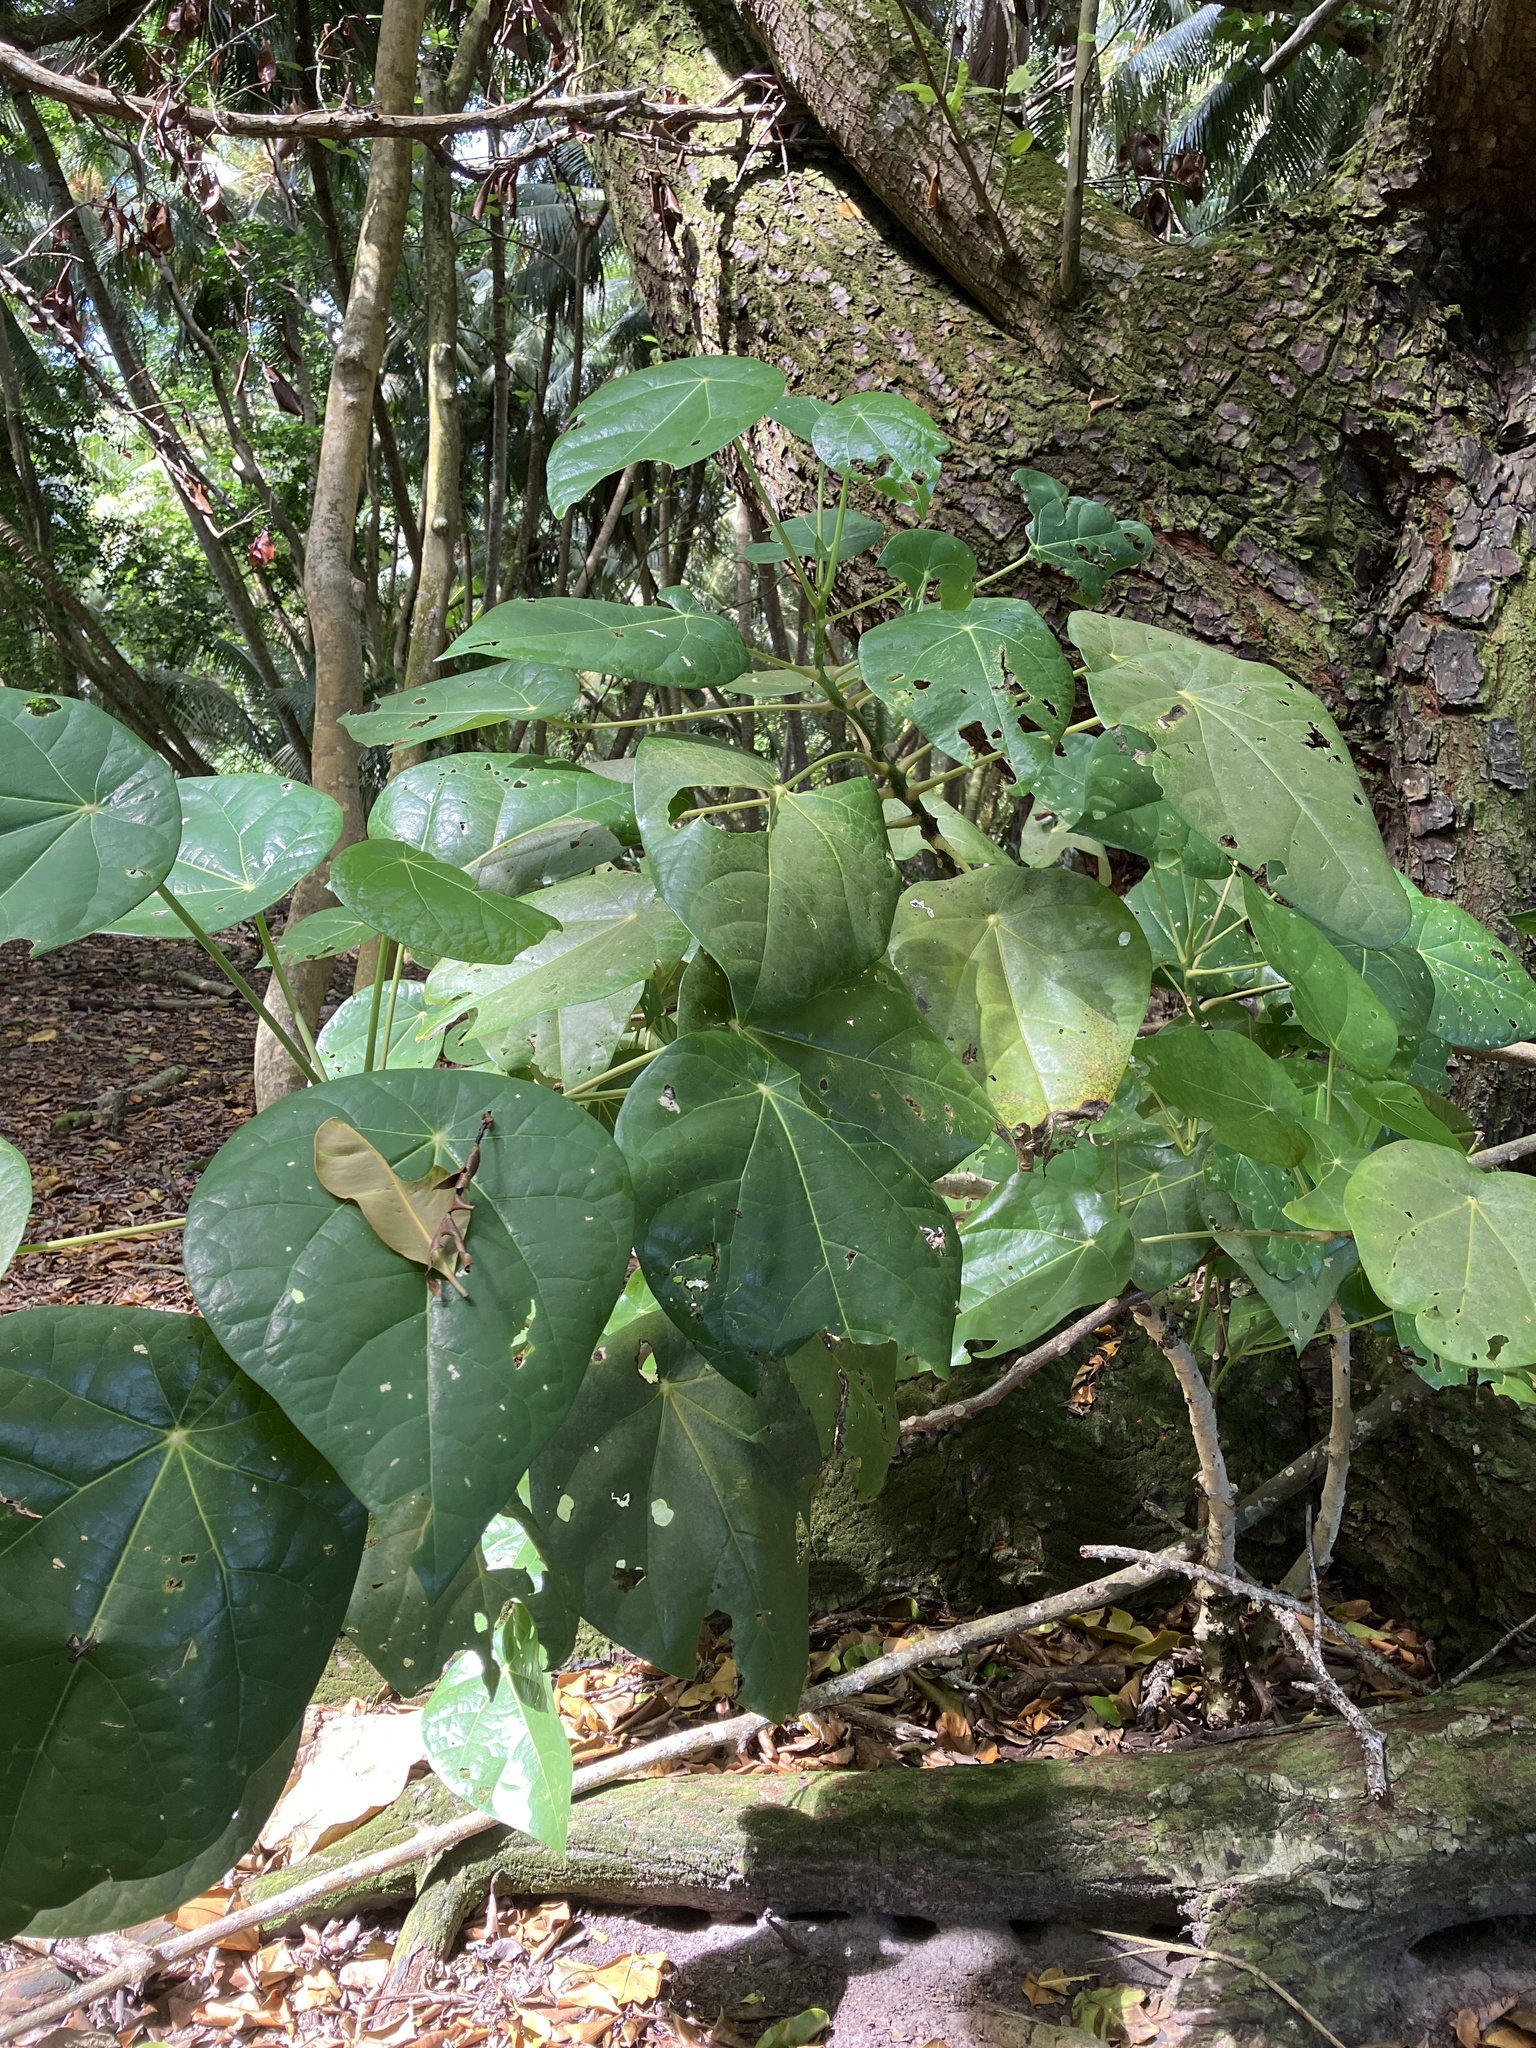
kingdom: Plantae
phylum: Tracheophyta
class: Magnoliopsida
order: Laurales
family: Hernandiaceae
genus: Hernandia
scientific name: Hernandia nymphaeifolia
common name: Sea hearse
